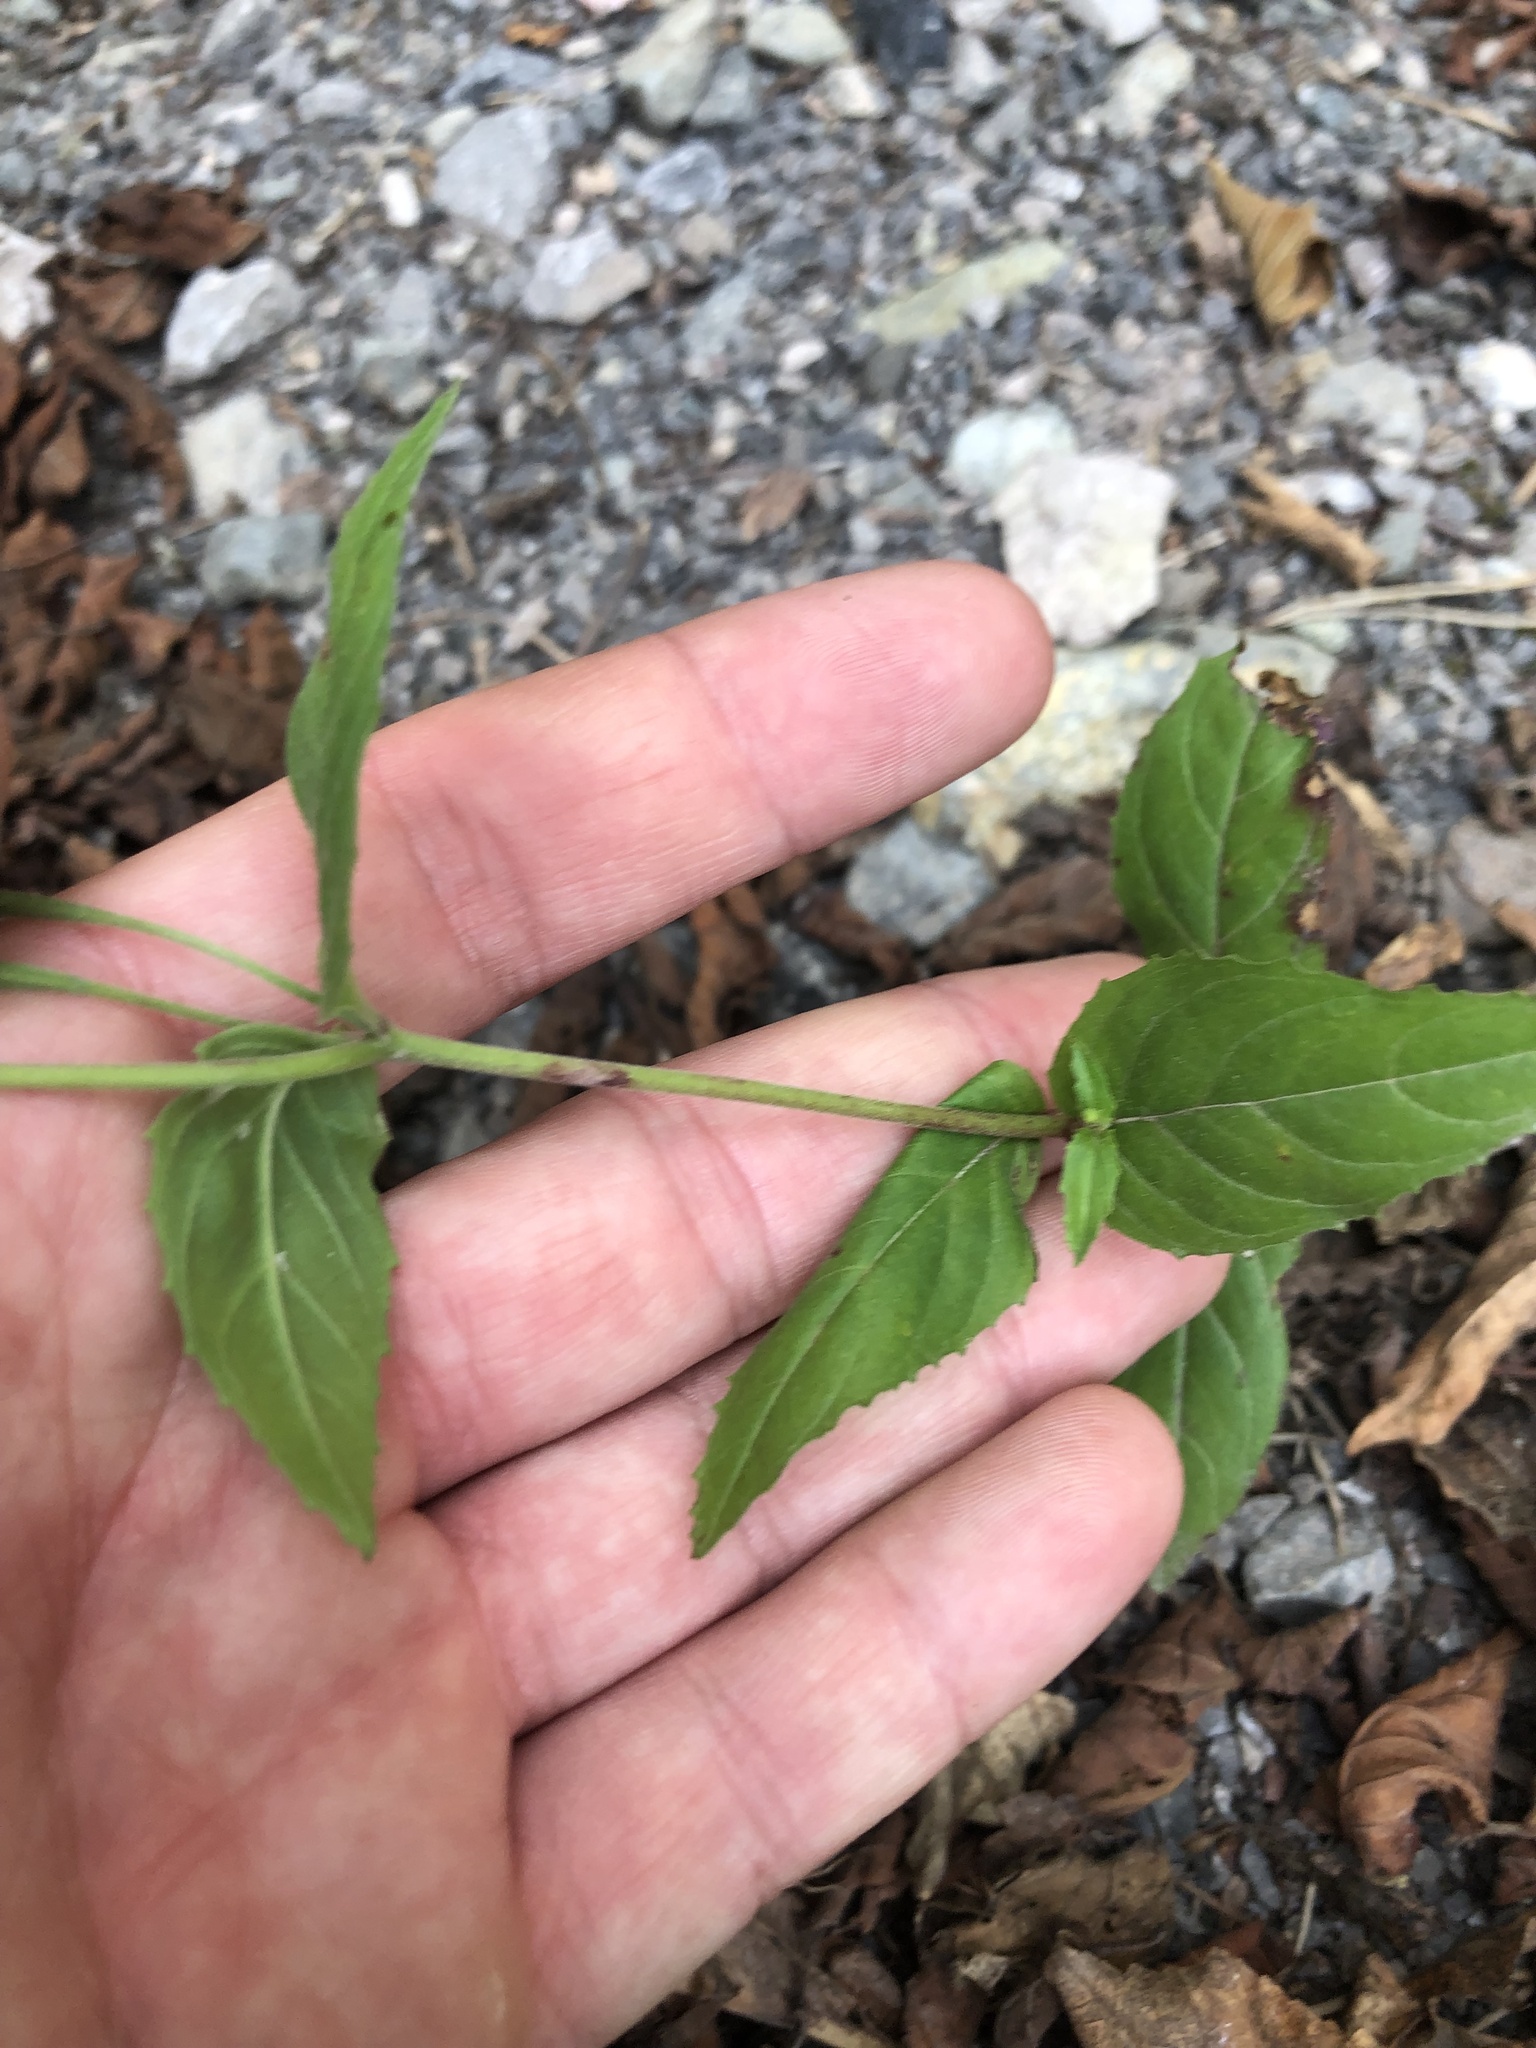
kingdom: Plantae
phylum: Tracheophyta
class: Magnoliopsida
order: Myrtales
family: Onagraceae
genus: Epilobium
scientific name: Epilobium montanum
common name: Broad-leaved willowherb
